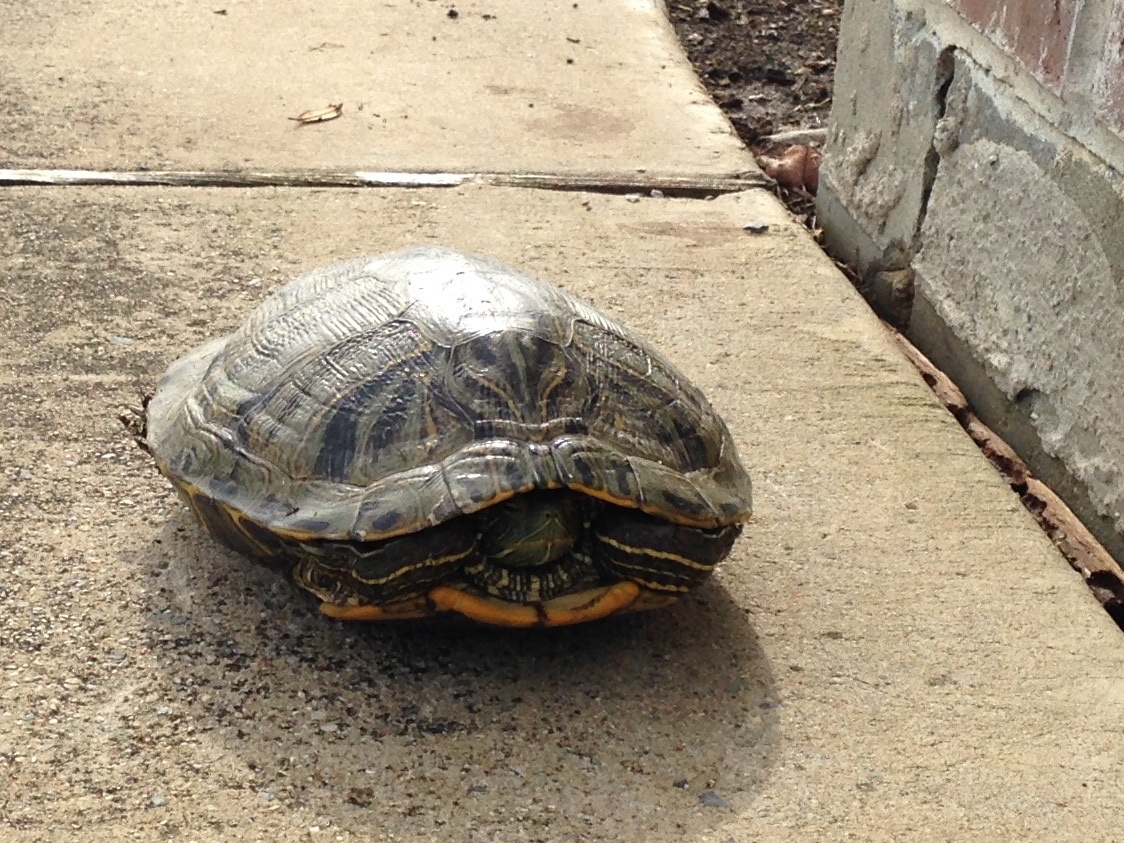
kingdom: Animalia
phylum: Chordata
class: Testudines
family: Emydidae
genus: Trachemys
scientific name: Trachemys scripta
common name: Slider
